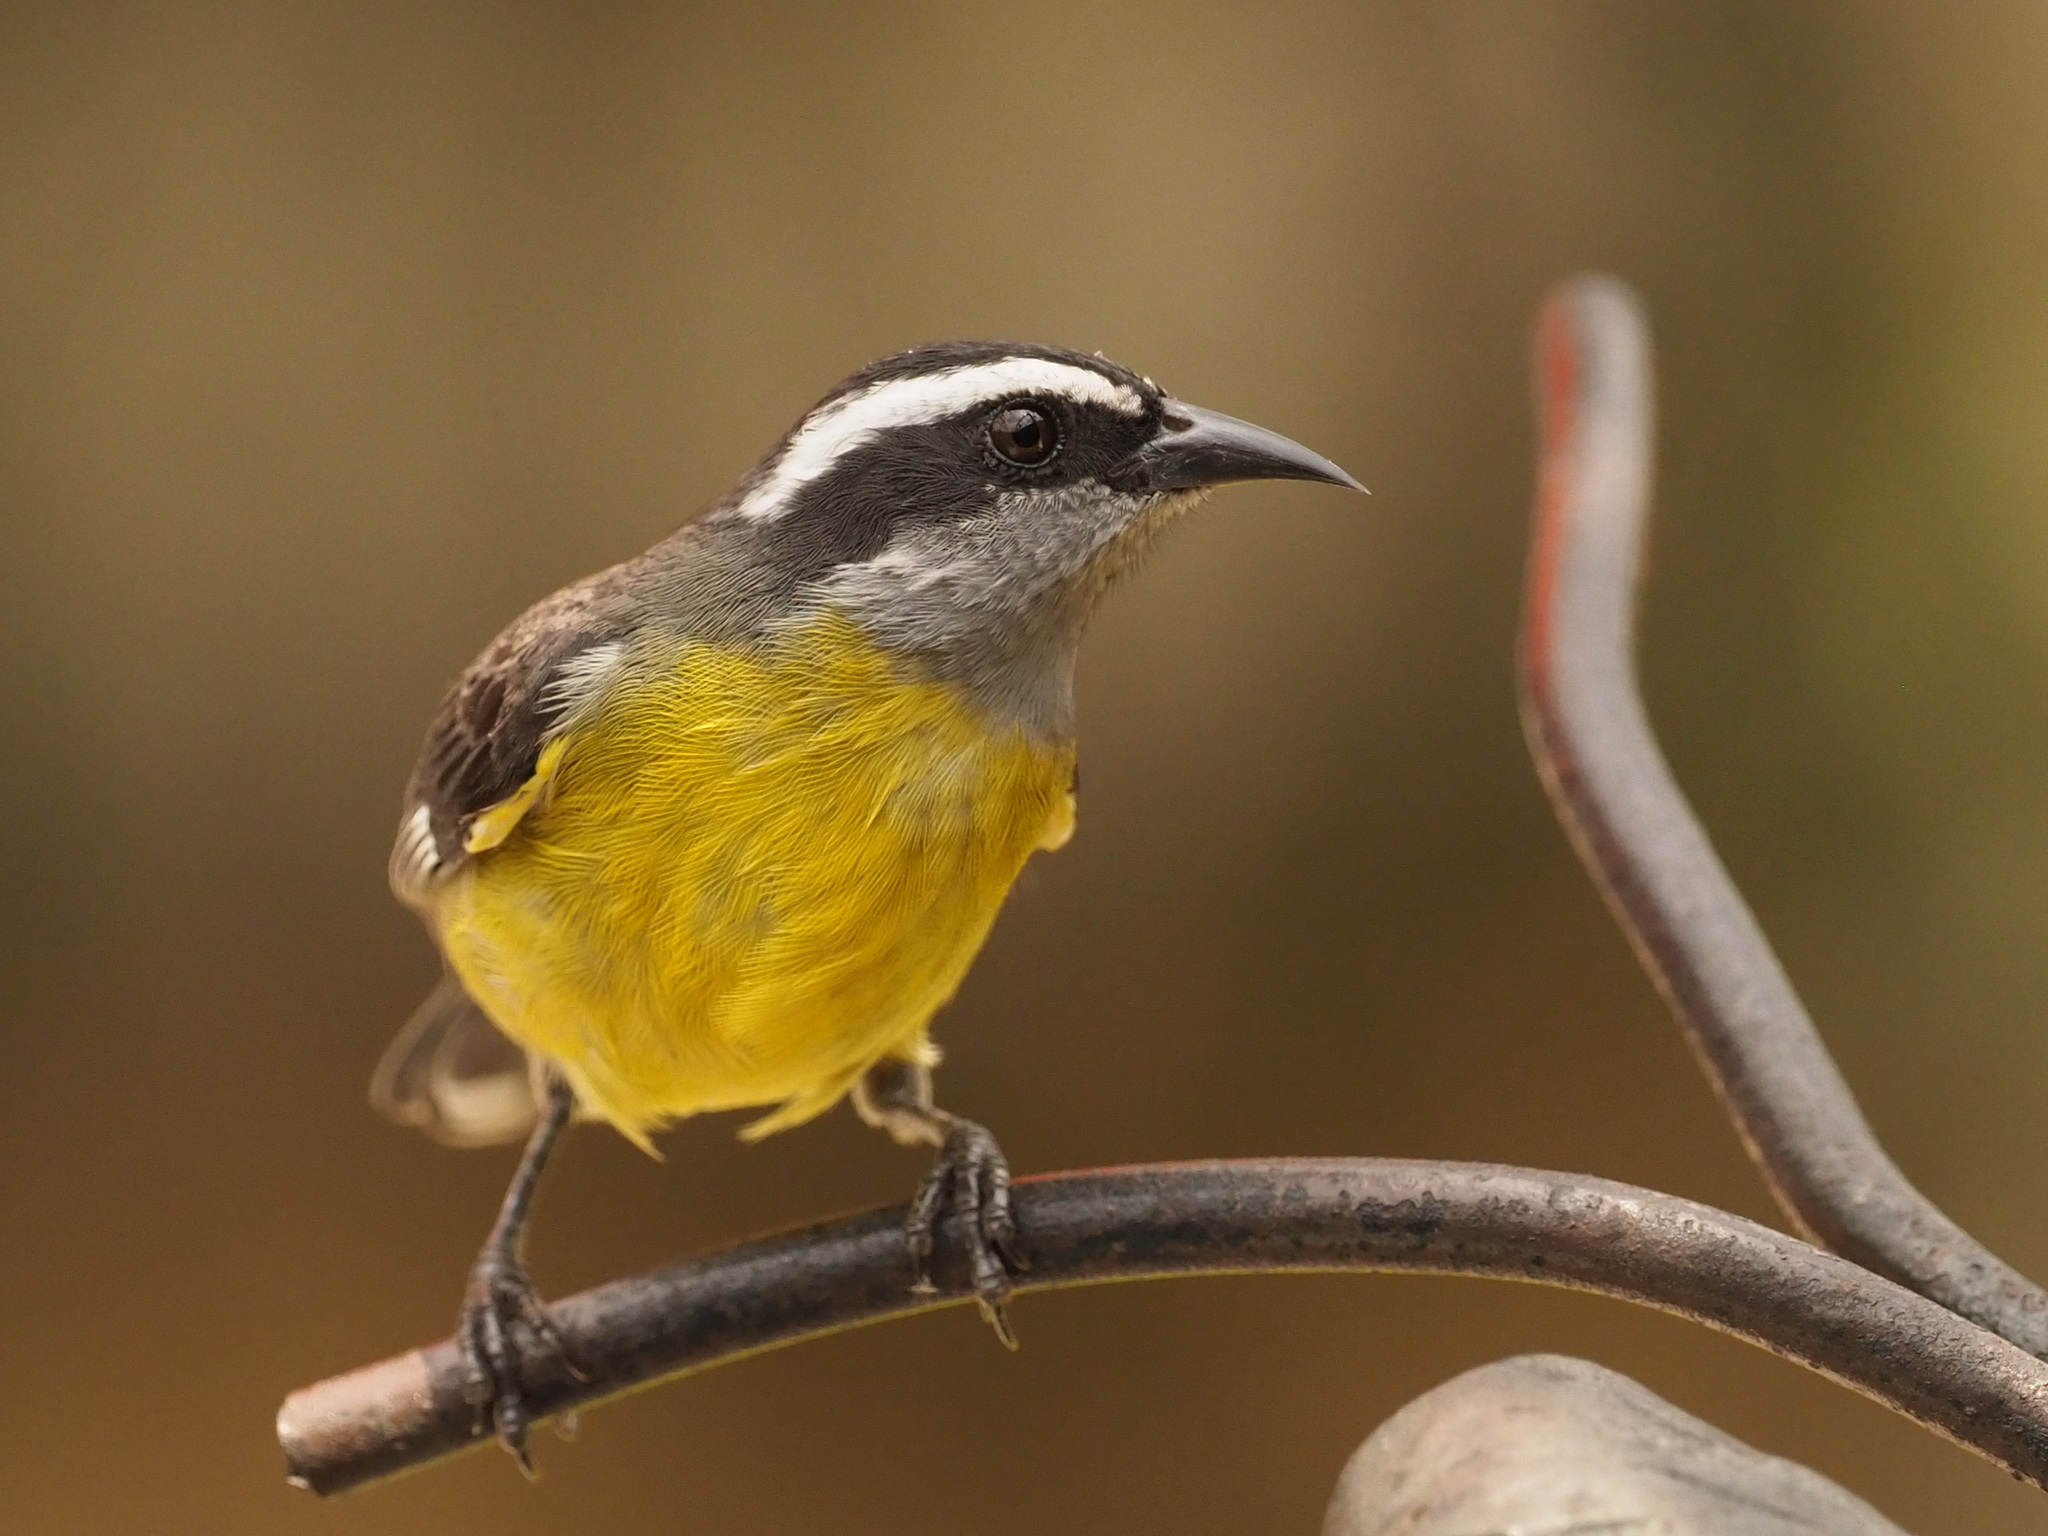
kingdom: Animalia
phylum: Chordata
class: Aves
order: Passeriformes
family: Thraupidae
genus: Coereba
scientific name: Coereba flaveola
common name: Bananaquit
